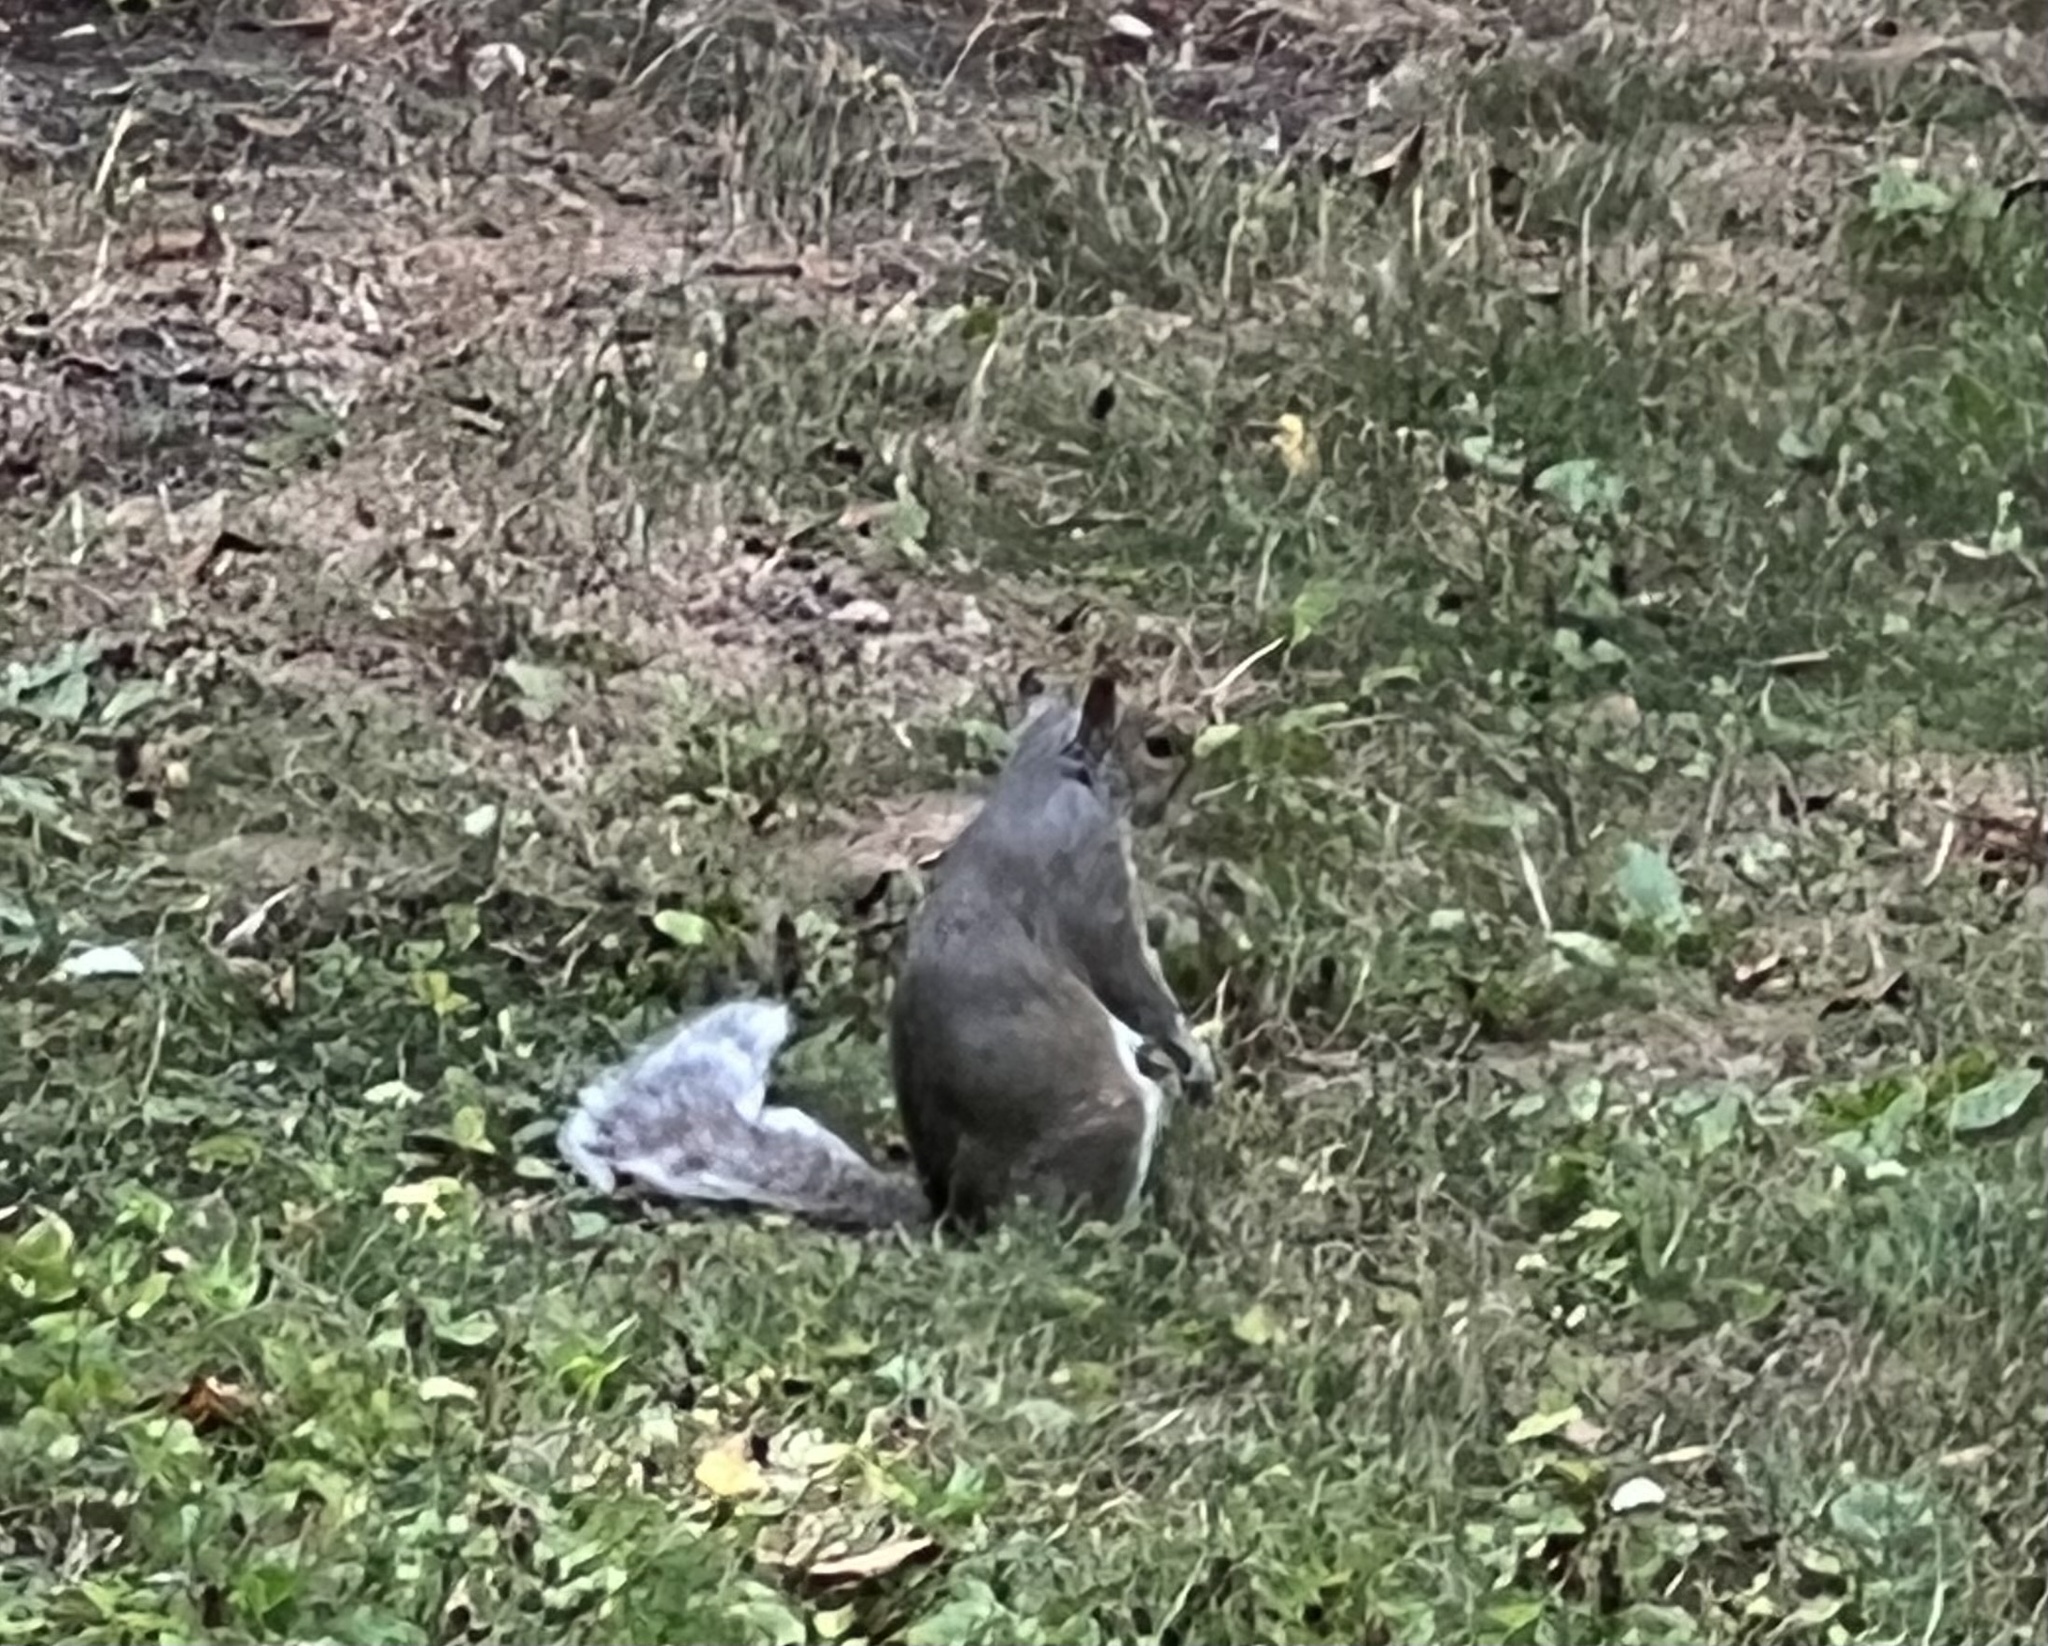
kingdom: Animalia
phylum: Chordata
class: Mammalia
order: Rodentia
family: Sciuridae
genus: Sciurus
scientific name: Sciurus carolinensis
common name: Eastern gray squirrel
